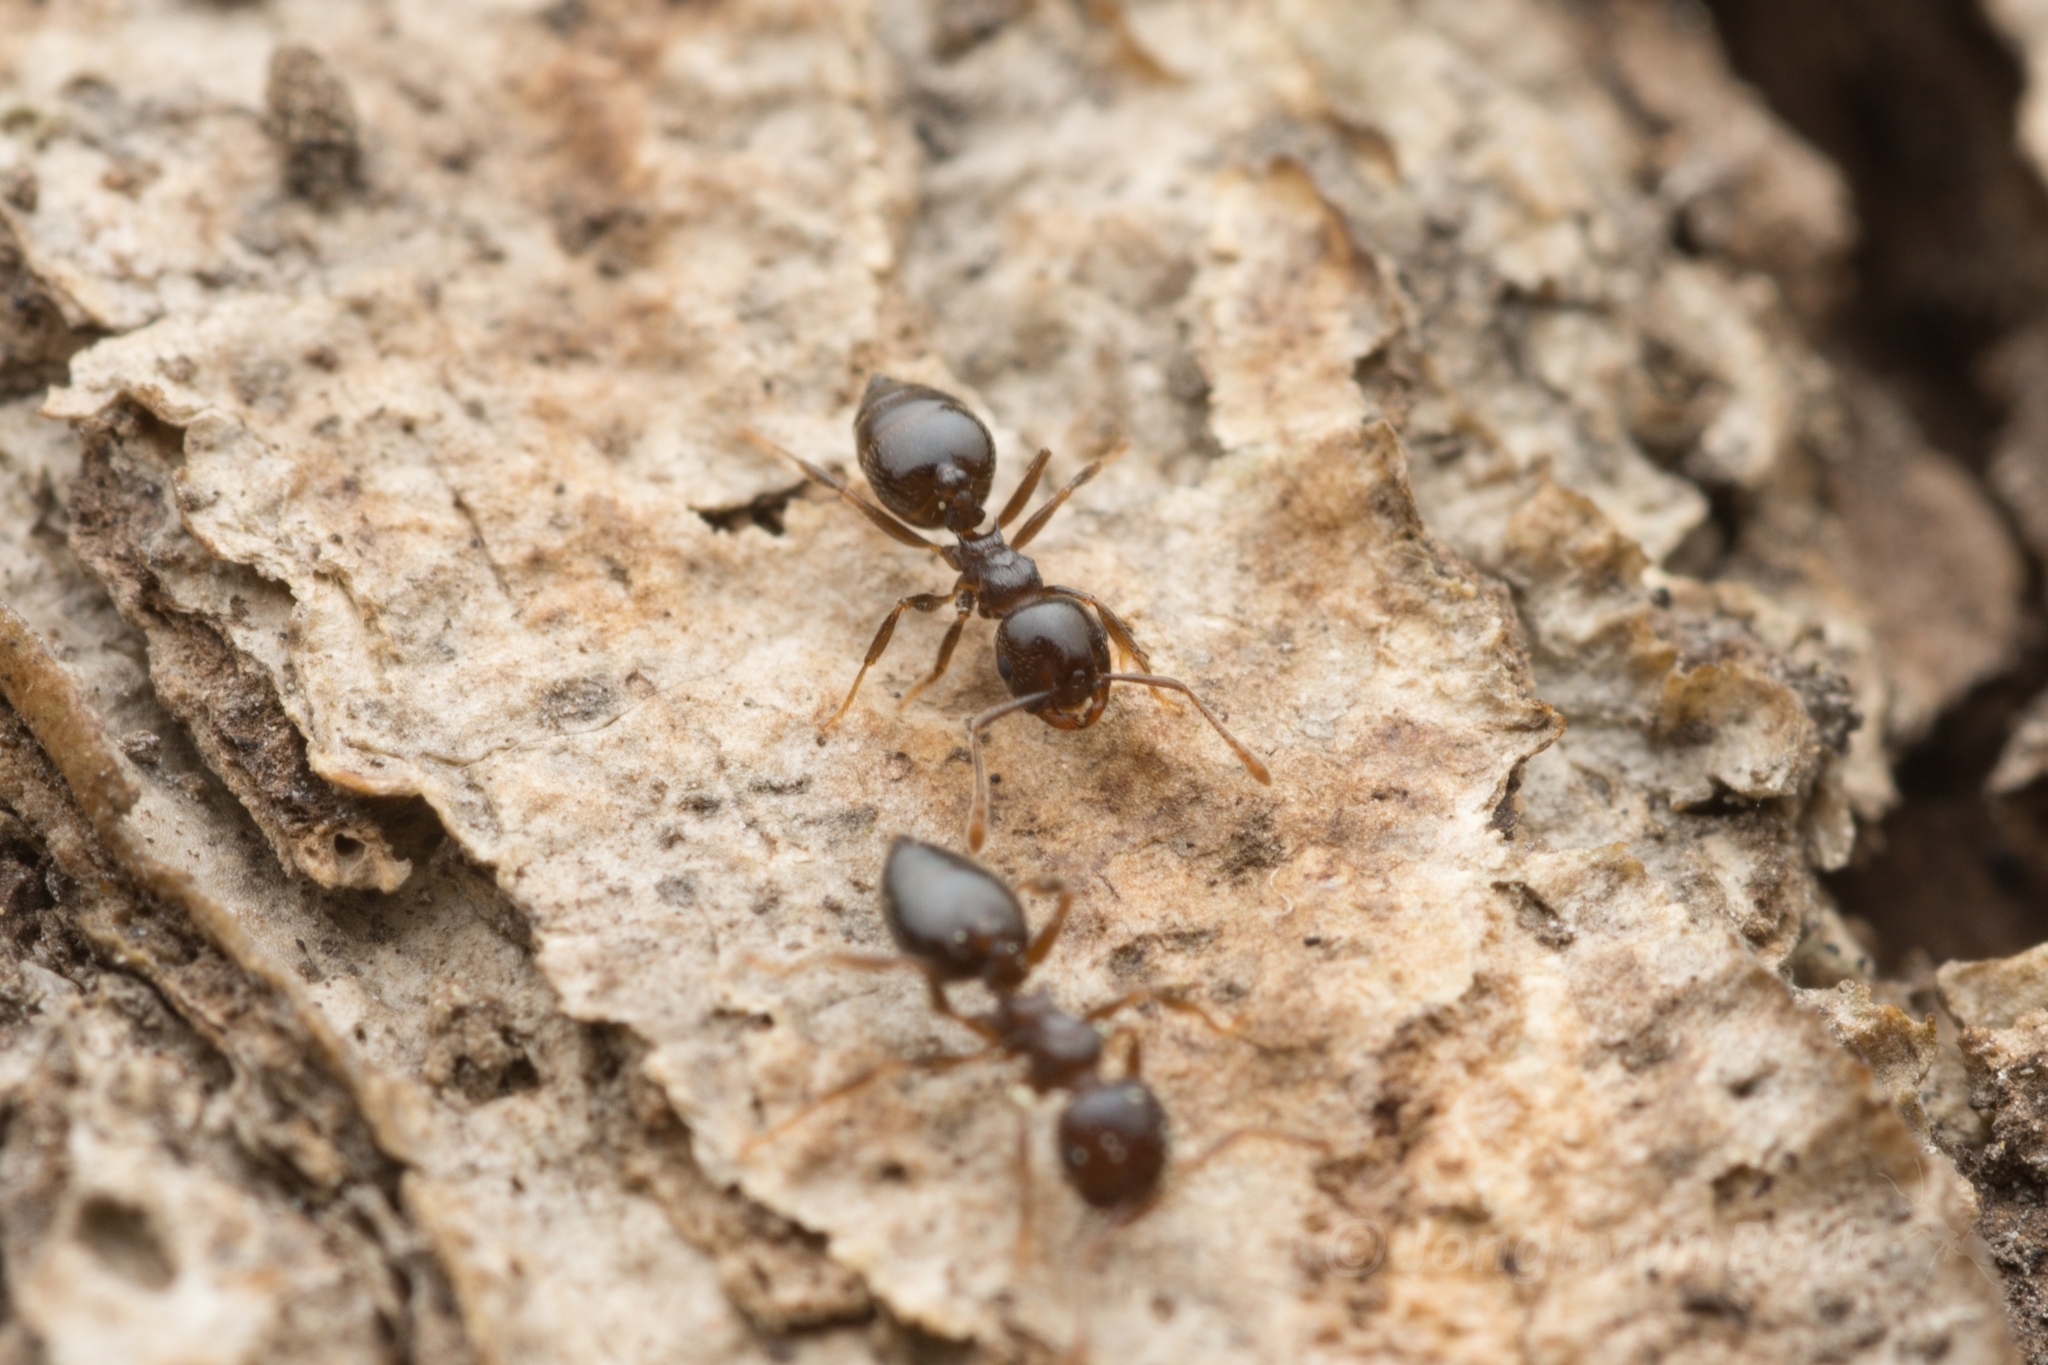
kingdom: Animalia
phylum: Arthropoda
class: Insecta
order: Hymenoptera
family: Formicidae
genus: Crematogaster
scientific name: Crematogaster teranishii
